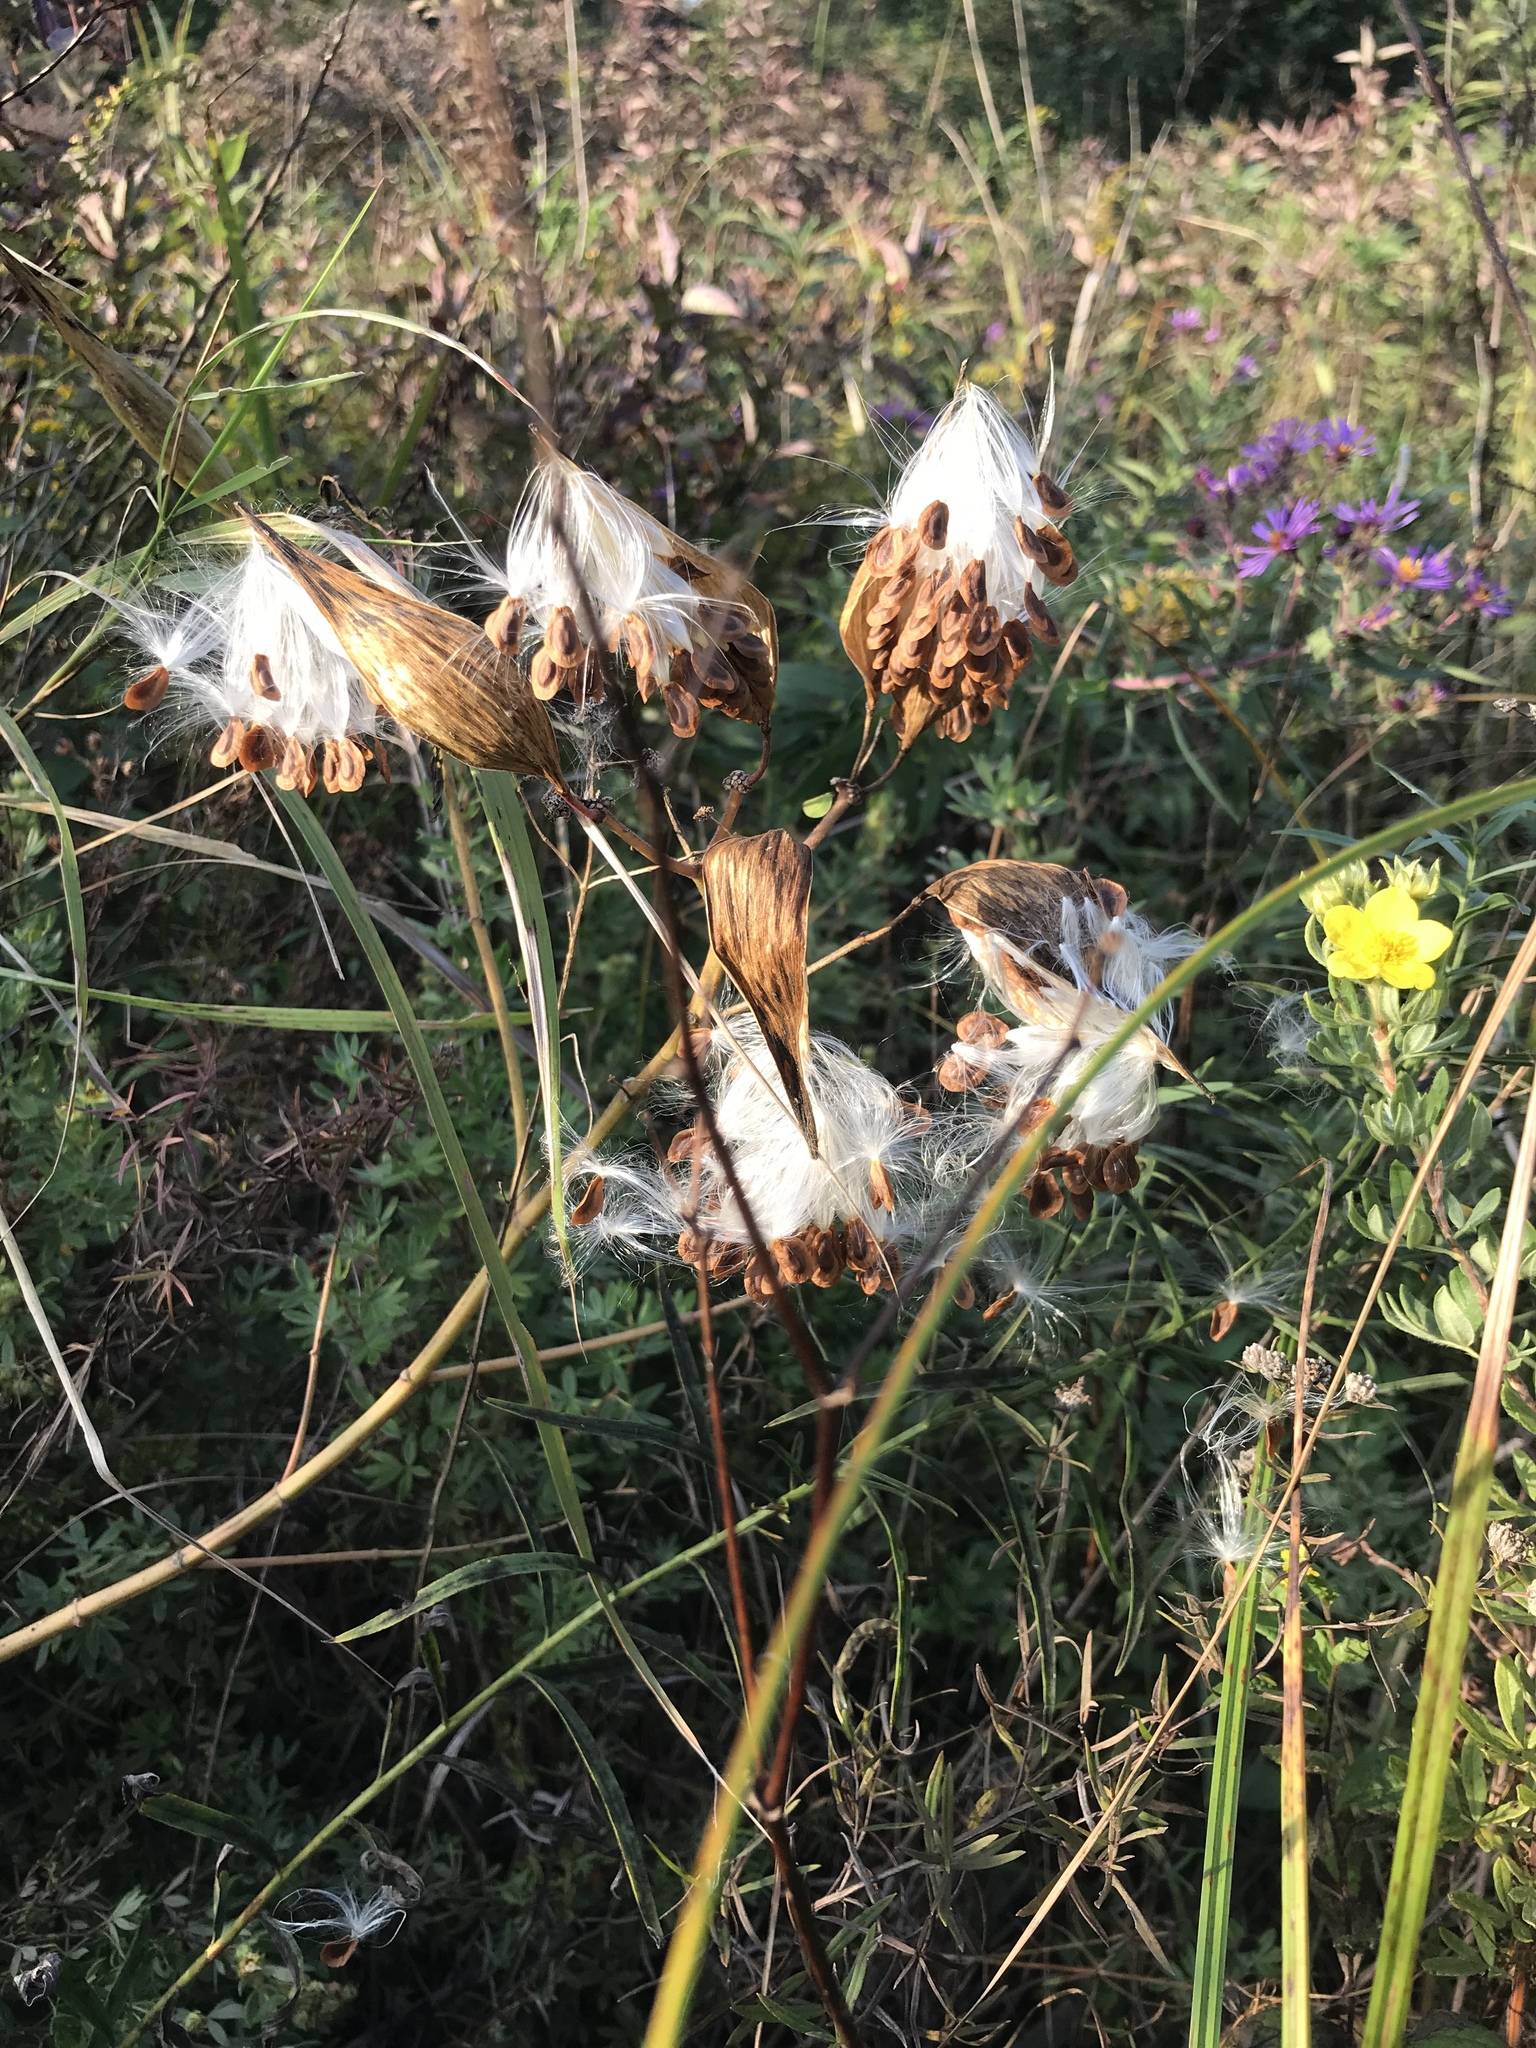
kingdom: Plantae
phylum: Tracheophyta
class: Magnoliopsida
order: Gentianales
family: Apocynaceae
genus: Asclepias
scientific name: Asclepias incarnata
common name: Swamp milkweed
